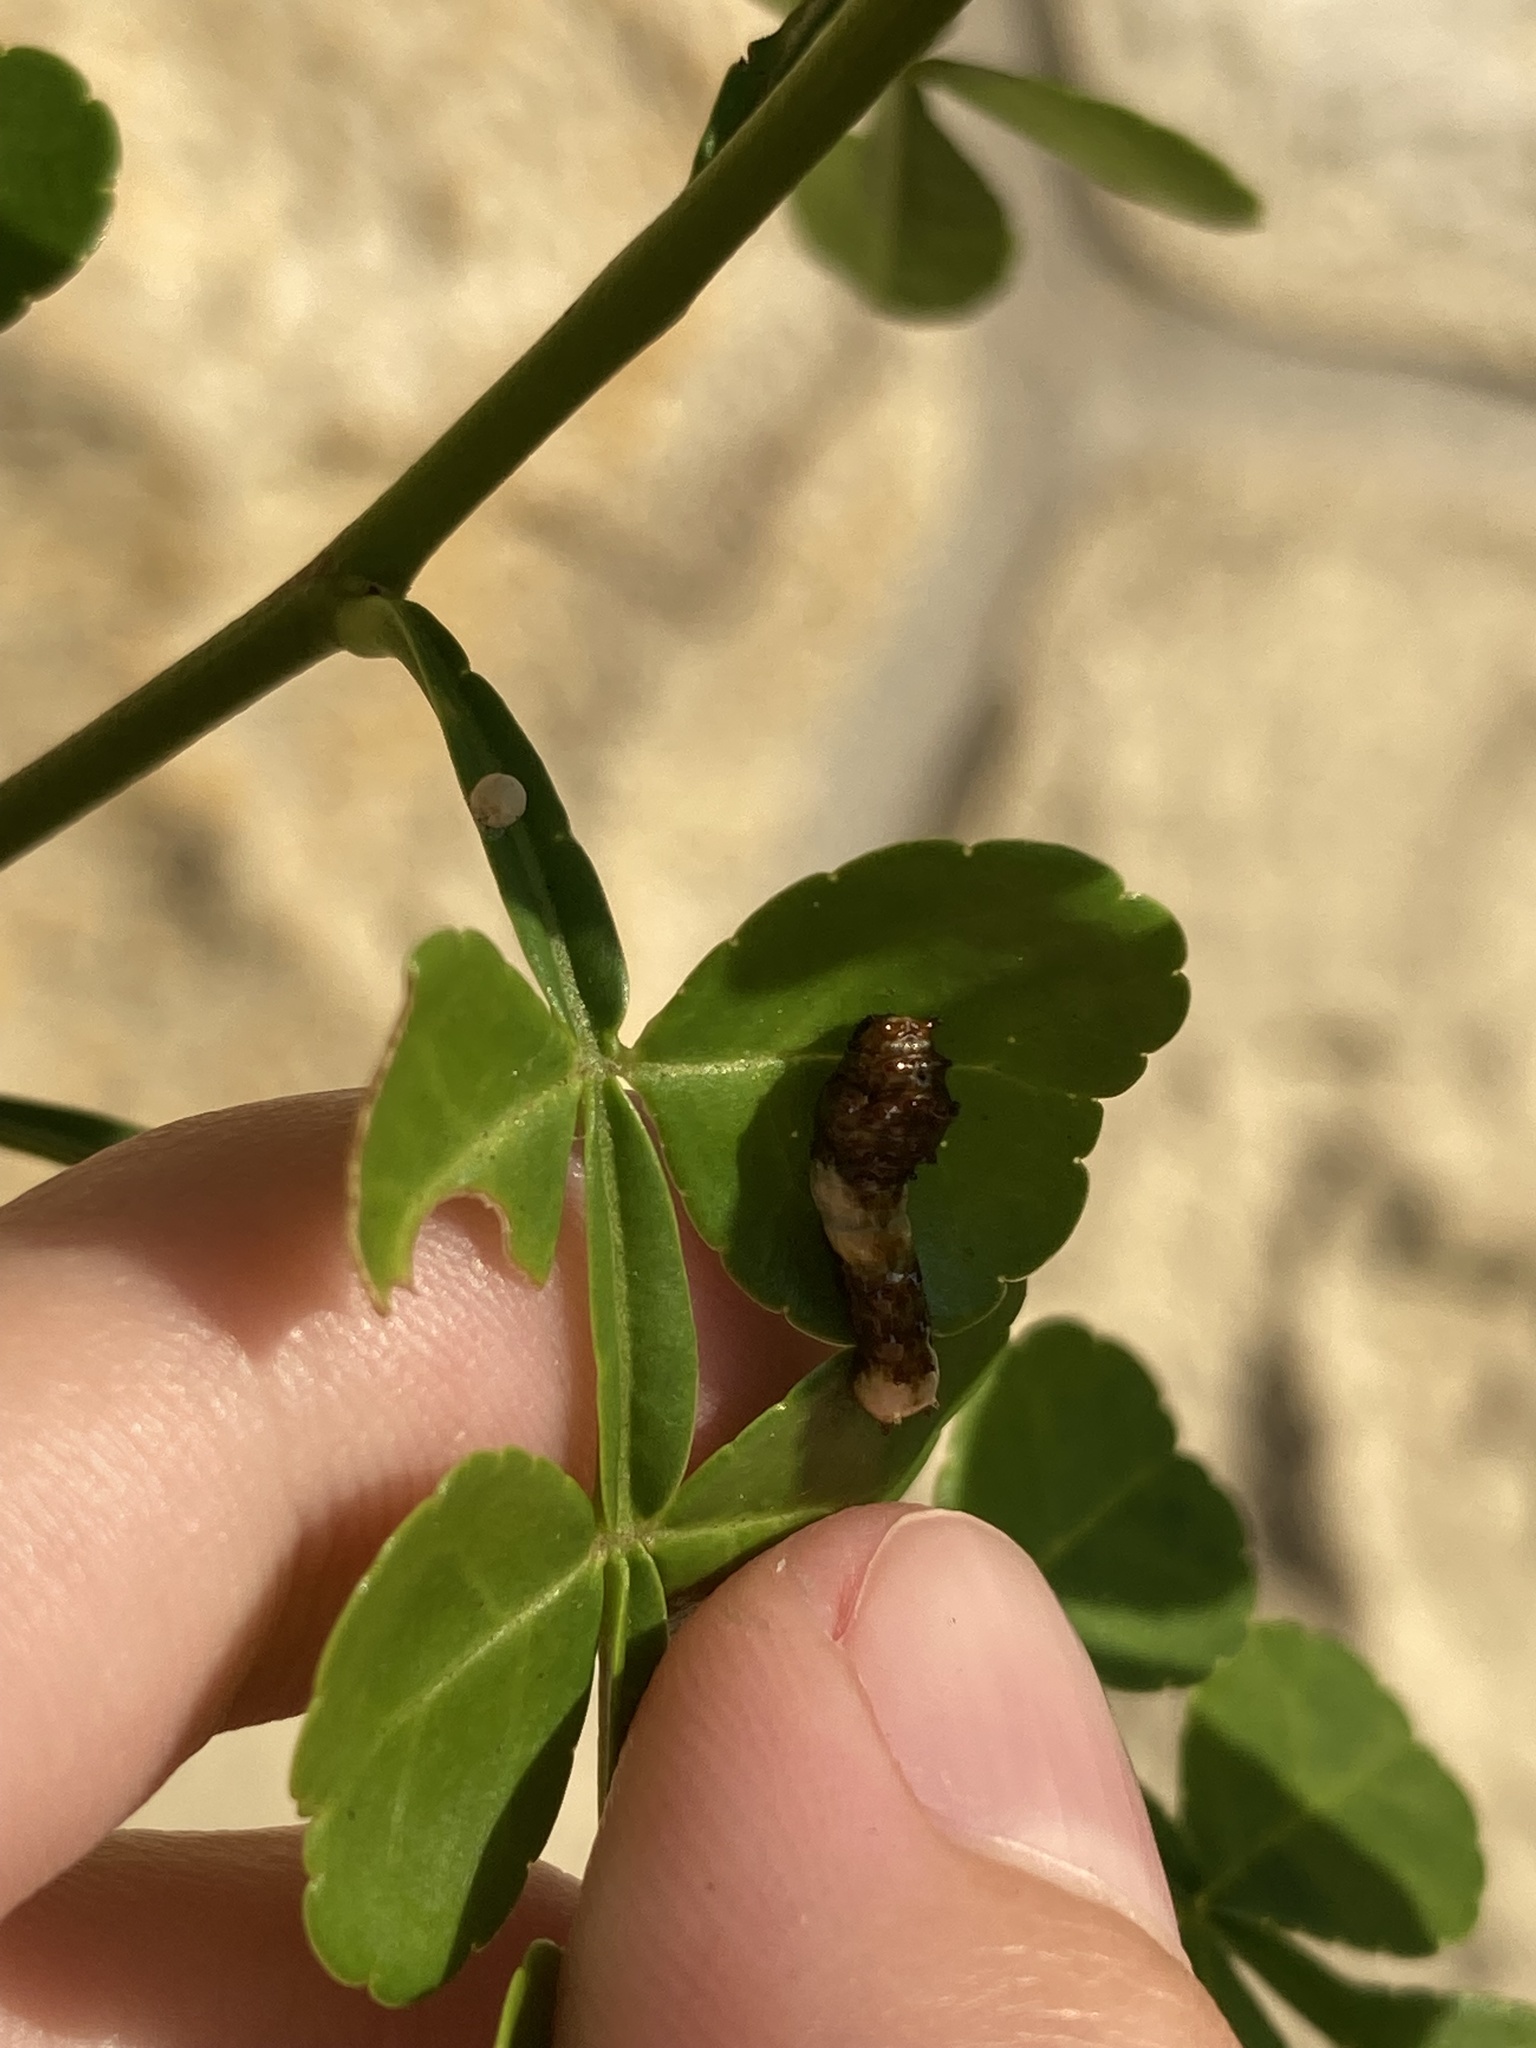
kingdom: Animalia
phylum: Arthropoda
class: Insecta
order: Lepidoptera
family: Papilionidae
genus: Papilio
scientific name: Papilio cresphontes
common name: Giant swallowtail
